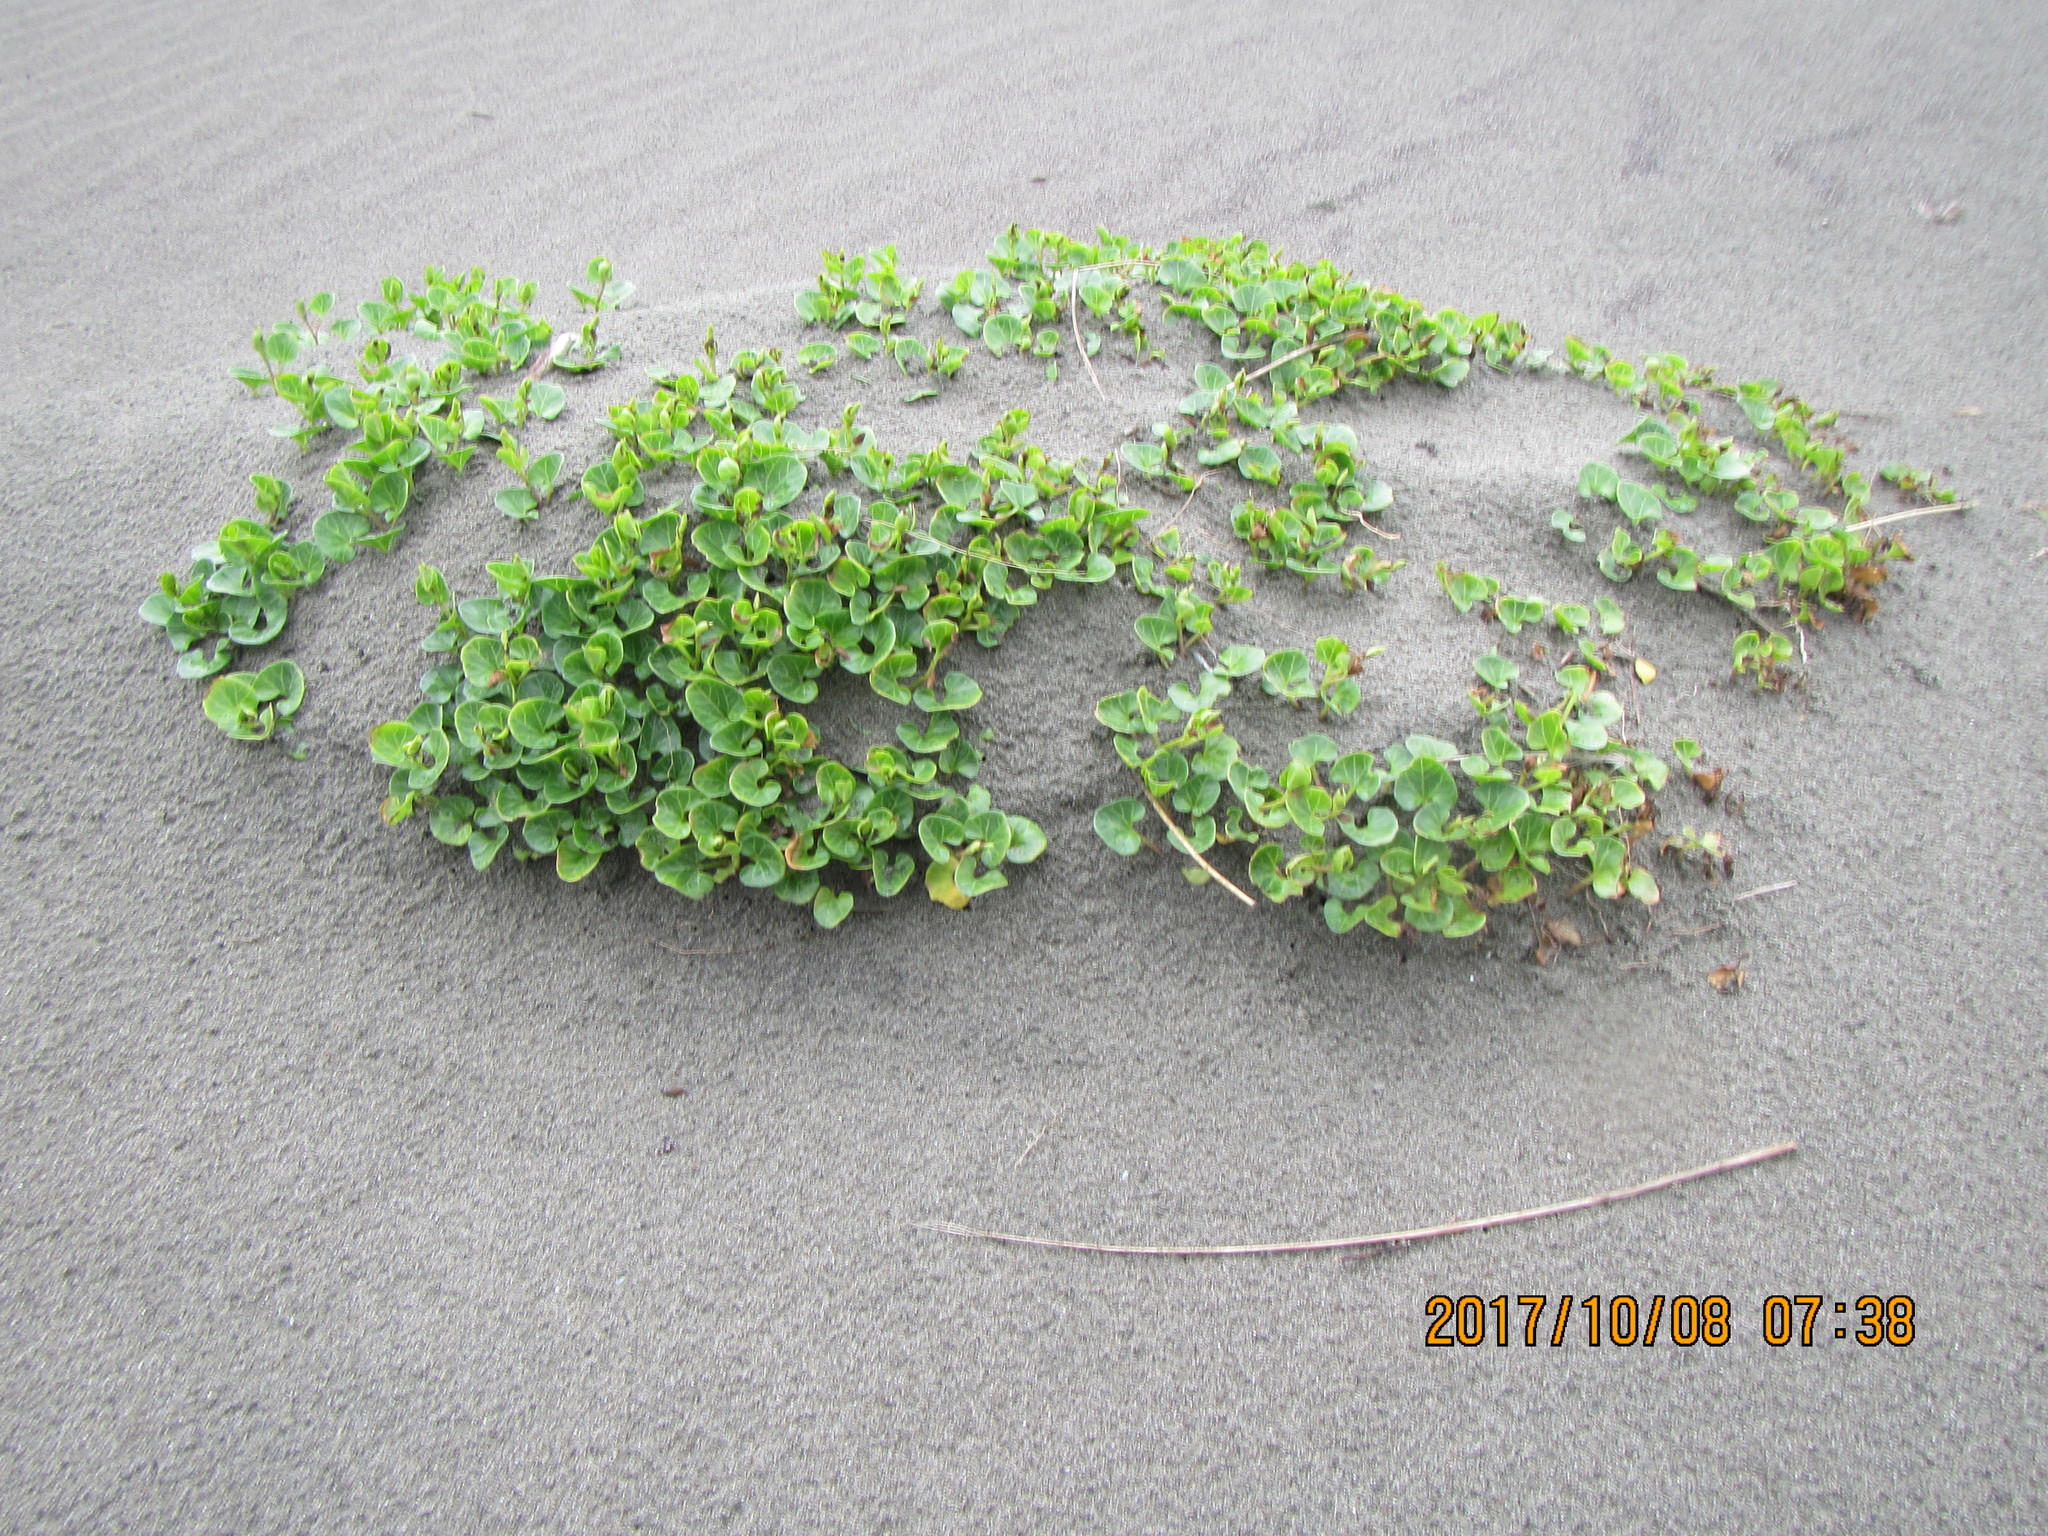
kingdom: Plantae
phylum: Tracheophyta
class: Magnoliopsida
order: Solanales
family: Convolvulaceae
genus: Calystegia
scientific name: Calystegia soldanella
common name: Sea bindweed
